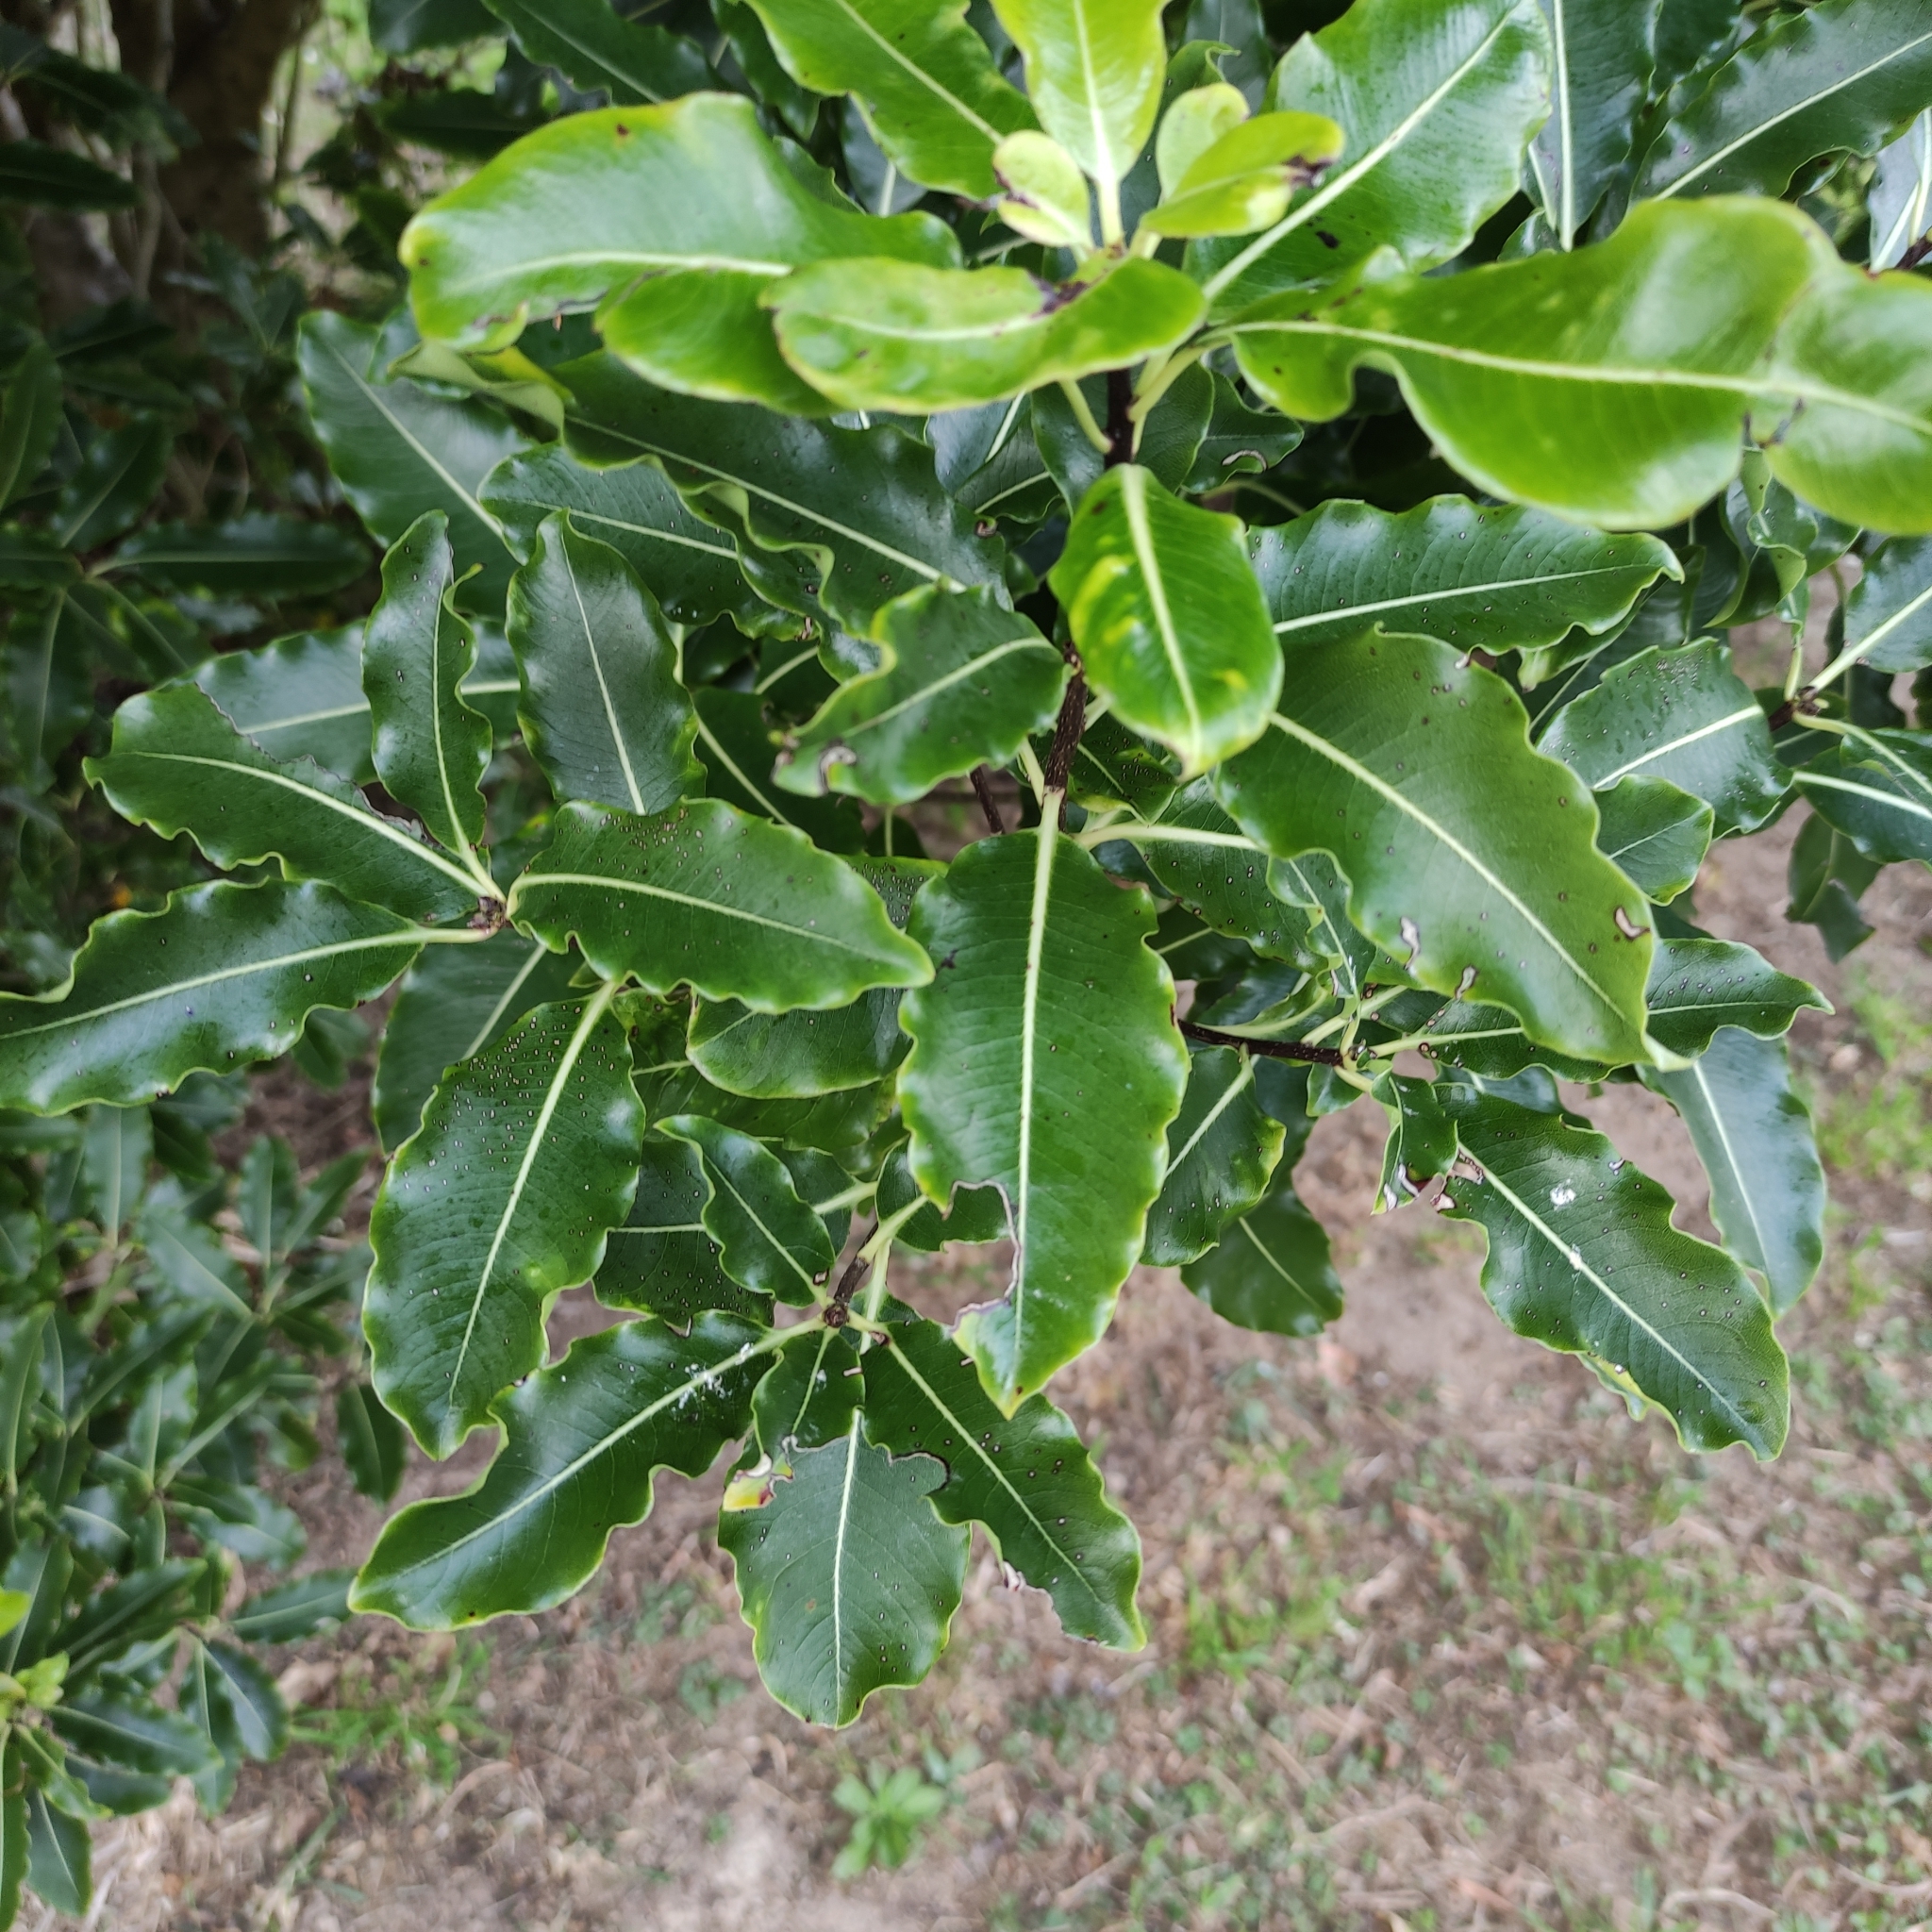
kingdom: Plantae
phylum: Tracheophyta
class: Magnoliopsida
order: Apiales
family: Pittosporaceae
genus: Pittosporum
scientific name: Pittosporum eugenioides
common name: Lemonwood
